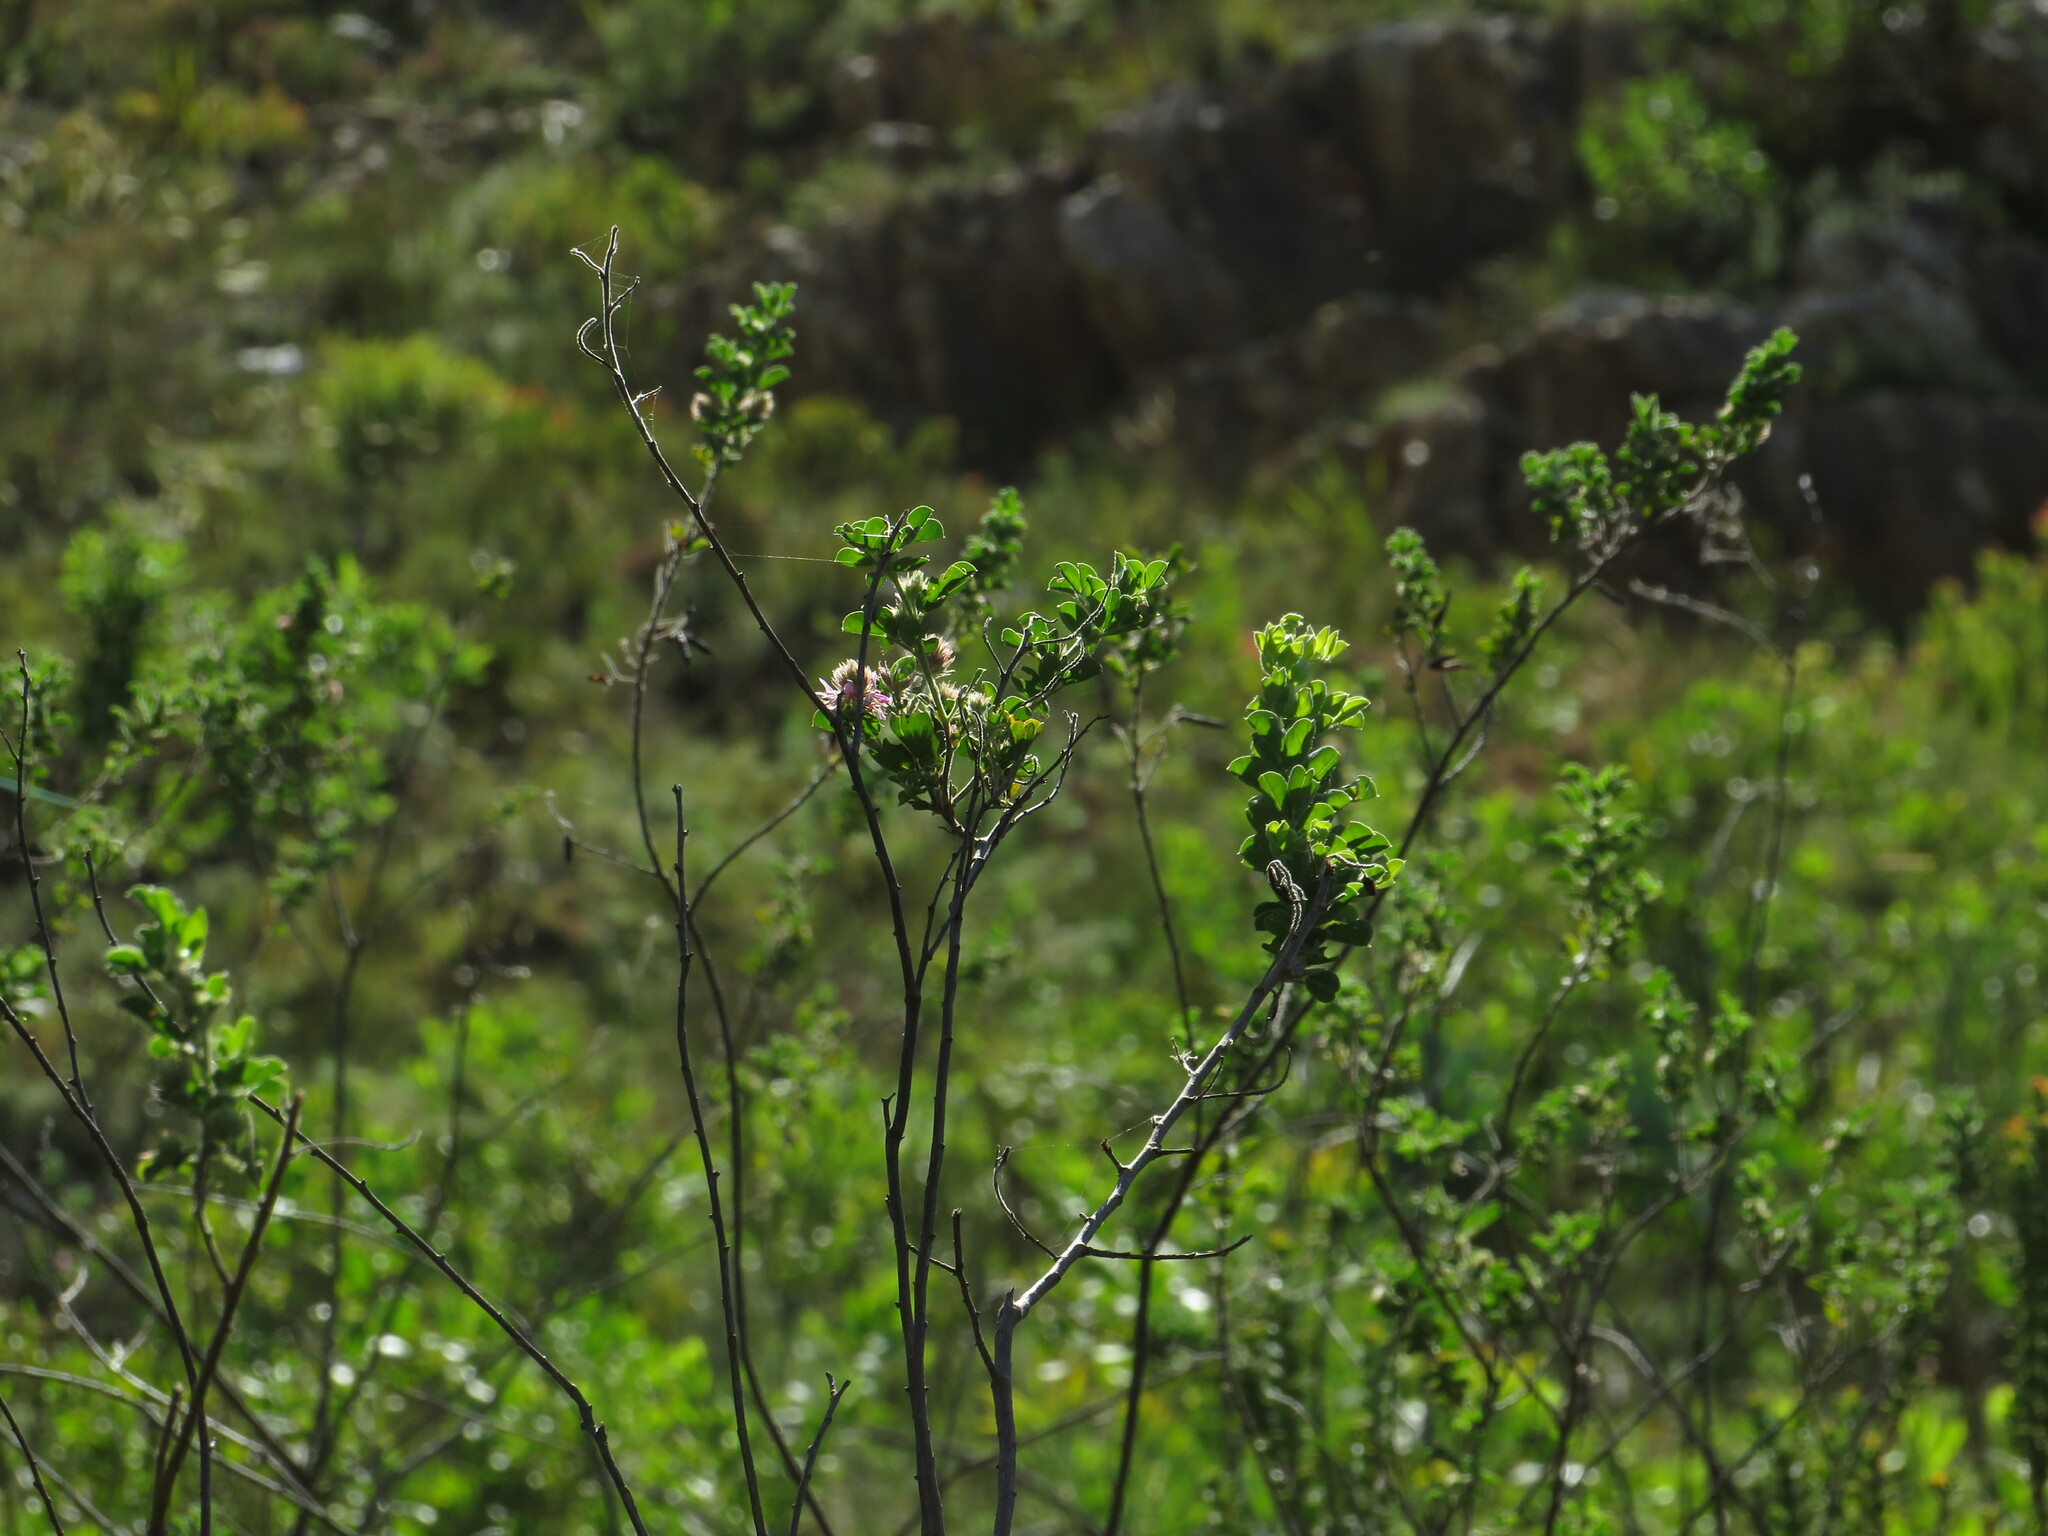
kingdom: Plantae
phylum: Tracheophyta
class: Magnoliopsida
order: Fabales
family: Fabaceae
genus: Indigofera
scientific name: Indigofera superba
